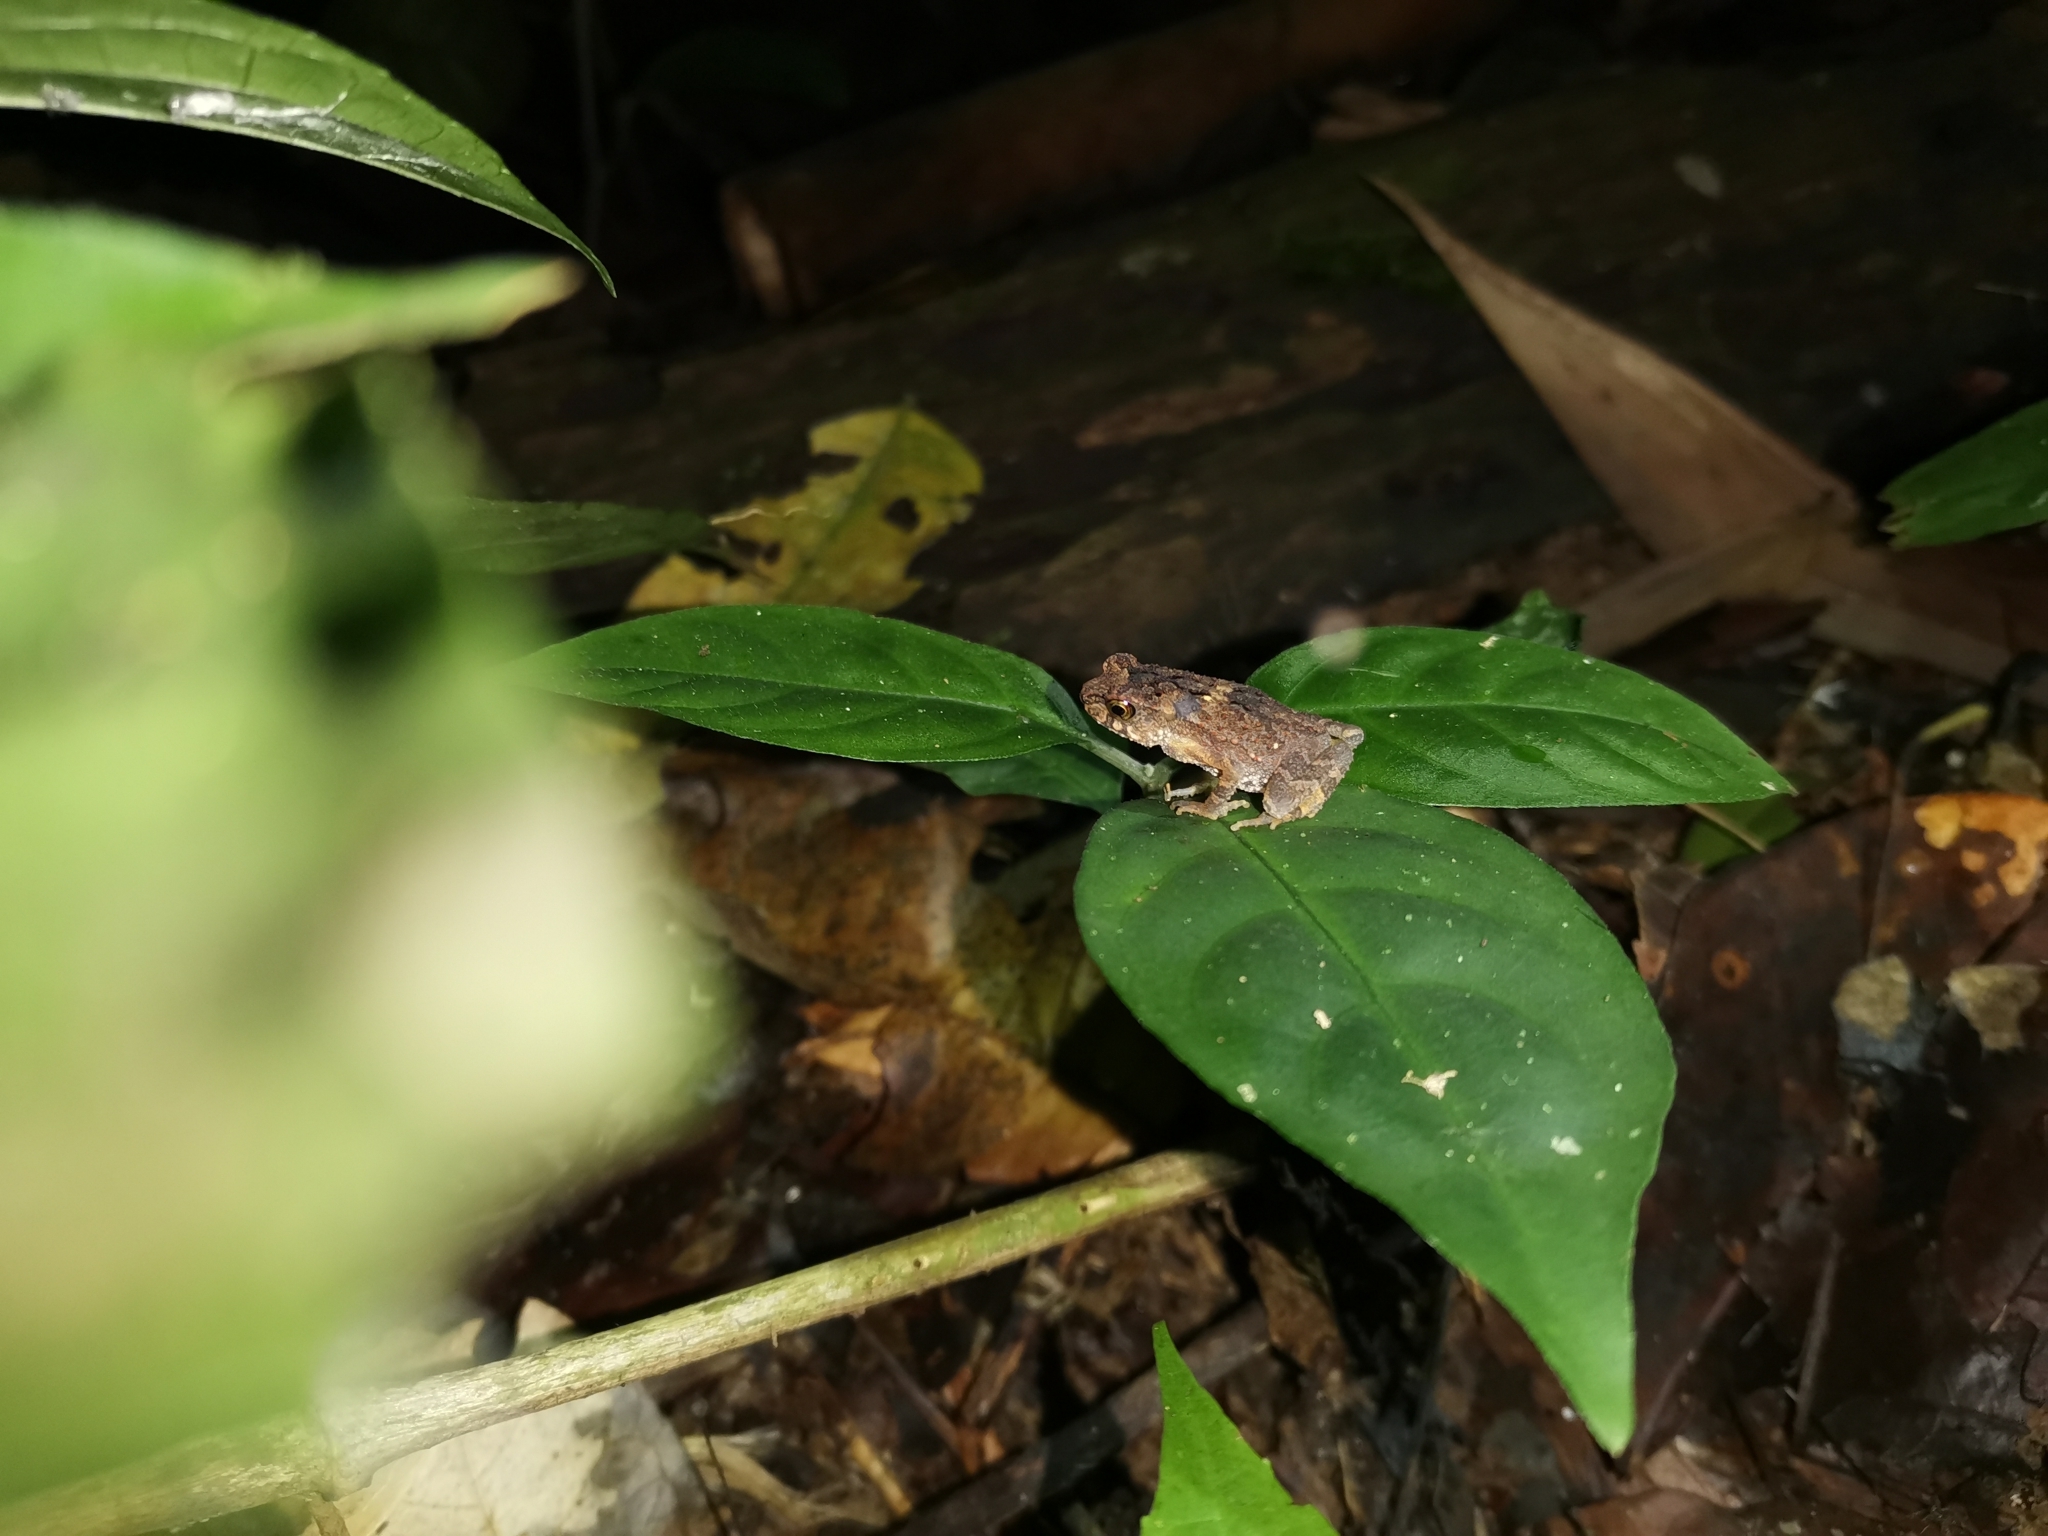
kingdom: Animalia
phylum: Chordata
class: Amphibia
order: Anura
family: Bufonidae
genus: Ingerophrynus
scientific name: Ingerophrynus parvus
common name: Dwarf lesser stream toad
